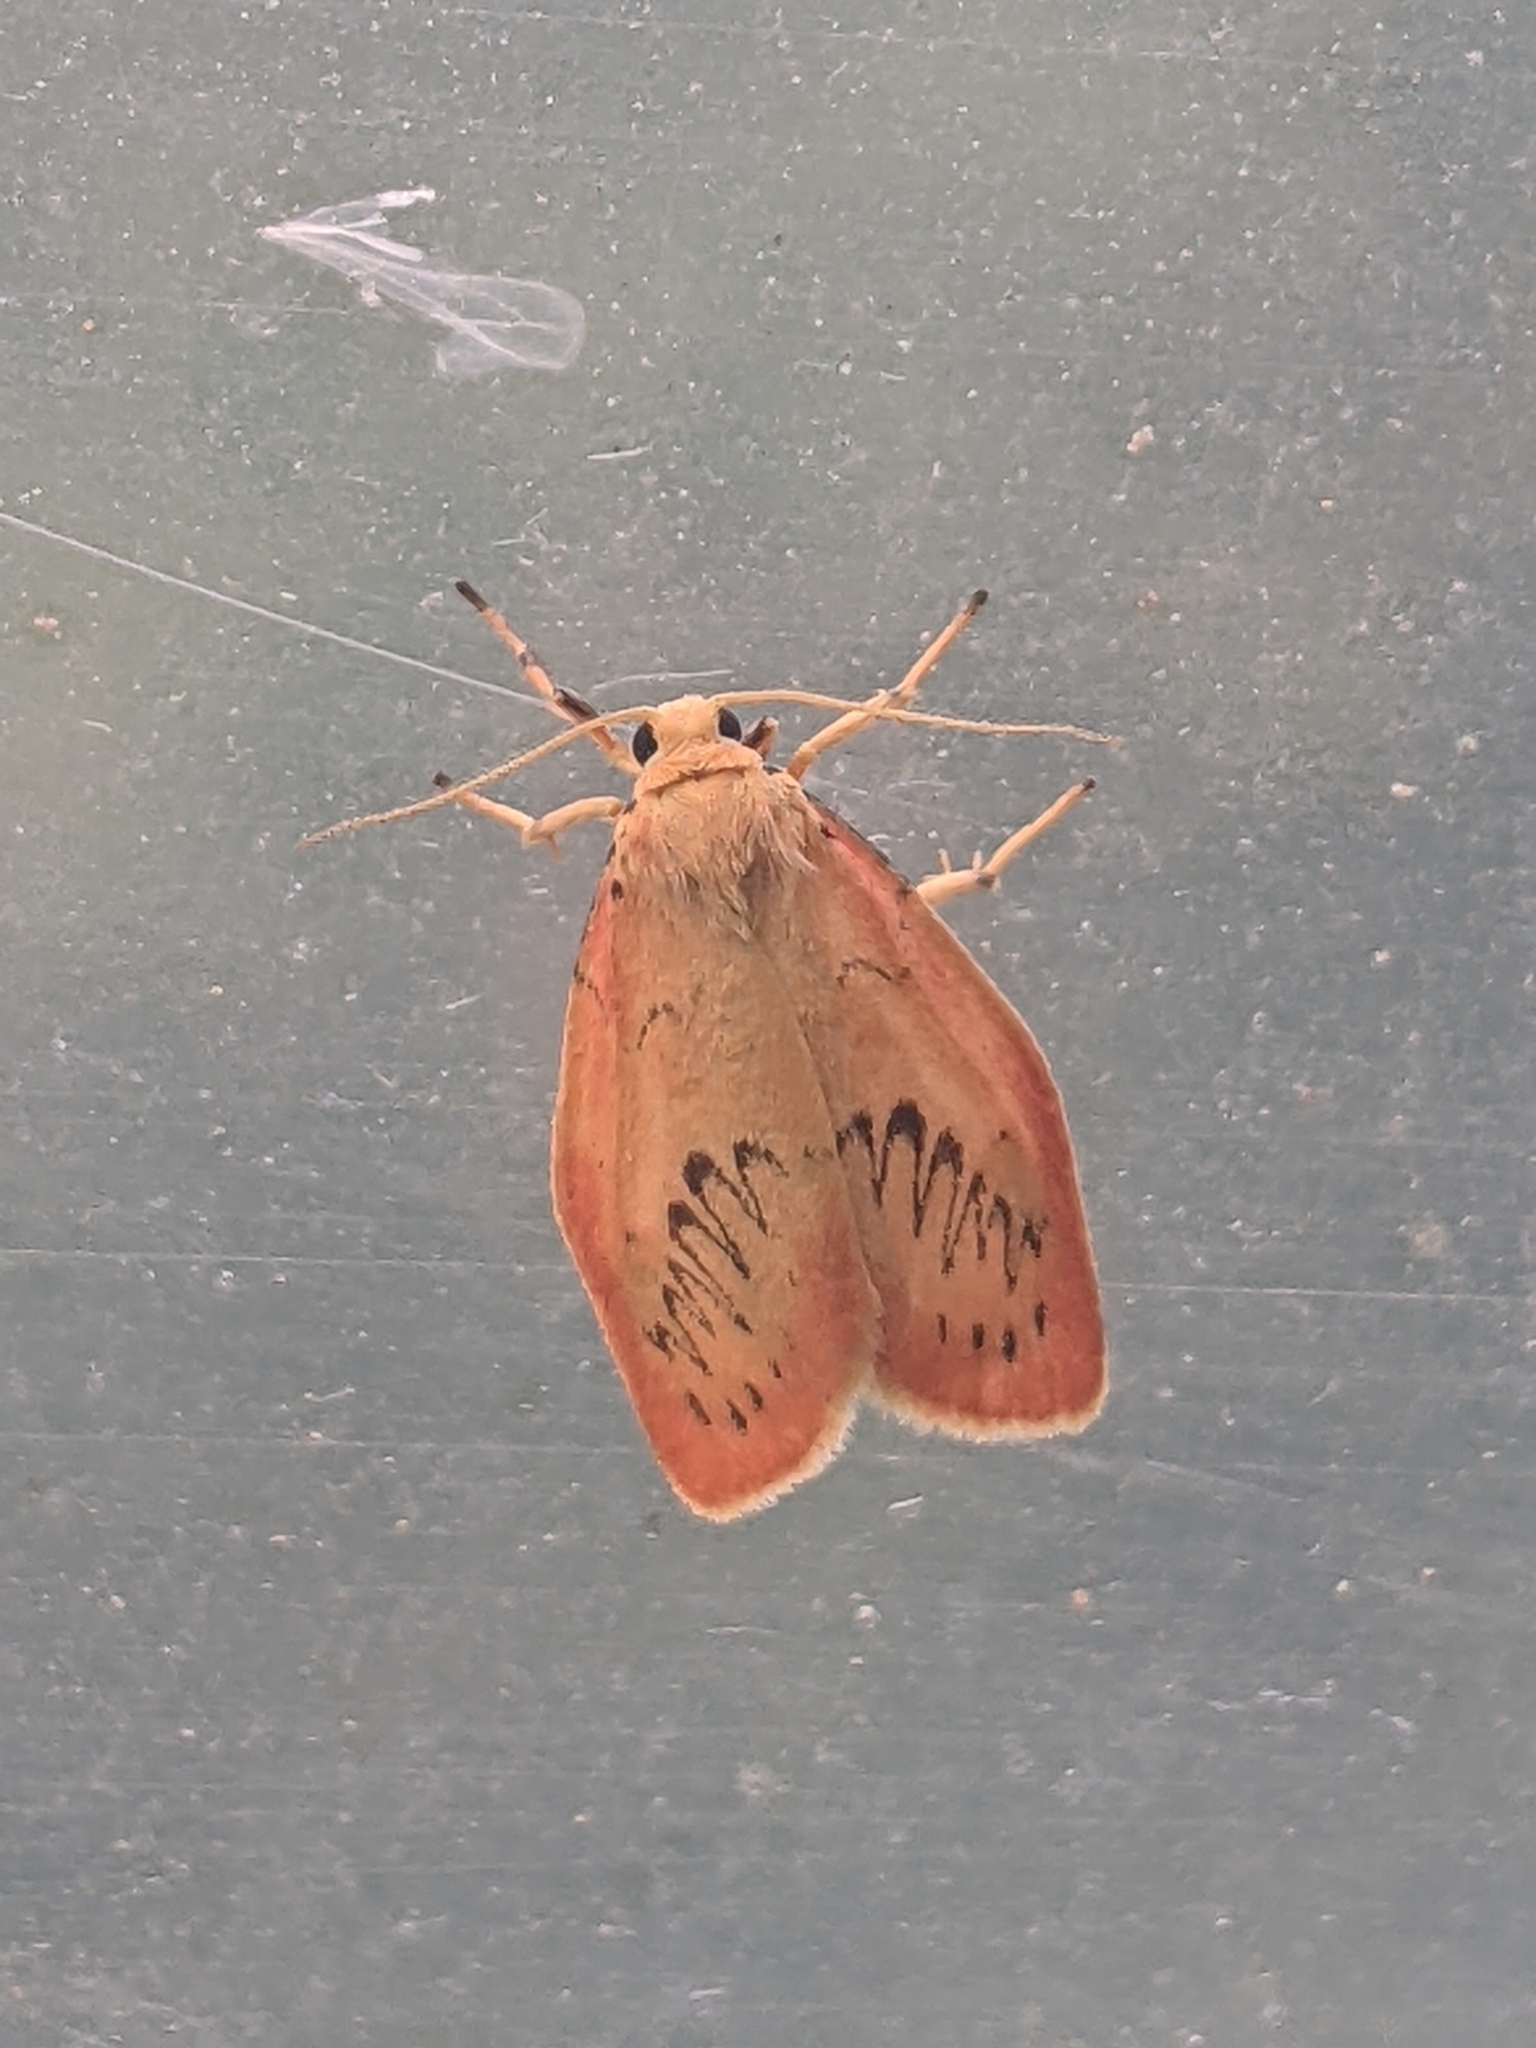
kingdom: Animalia
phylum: Arthropoda
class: Insecta
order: Lepidoptera
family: Erebidae
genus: Miltochrista
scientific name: Miltochrista miniata
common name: Rosy footman
